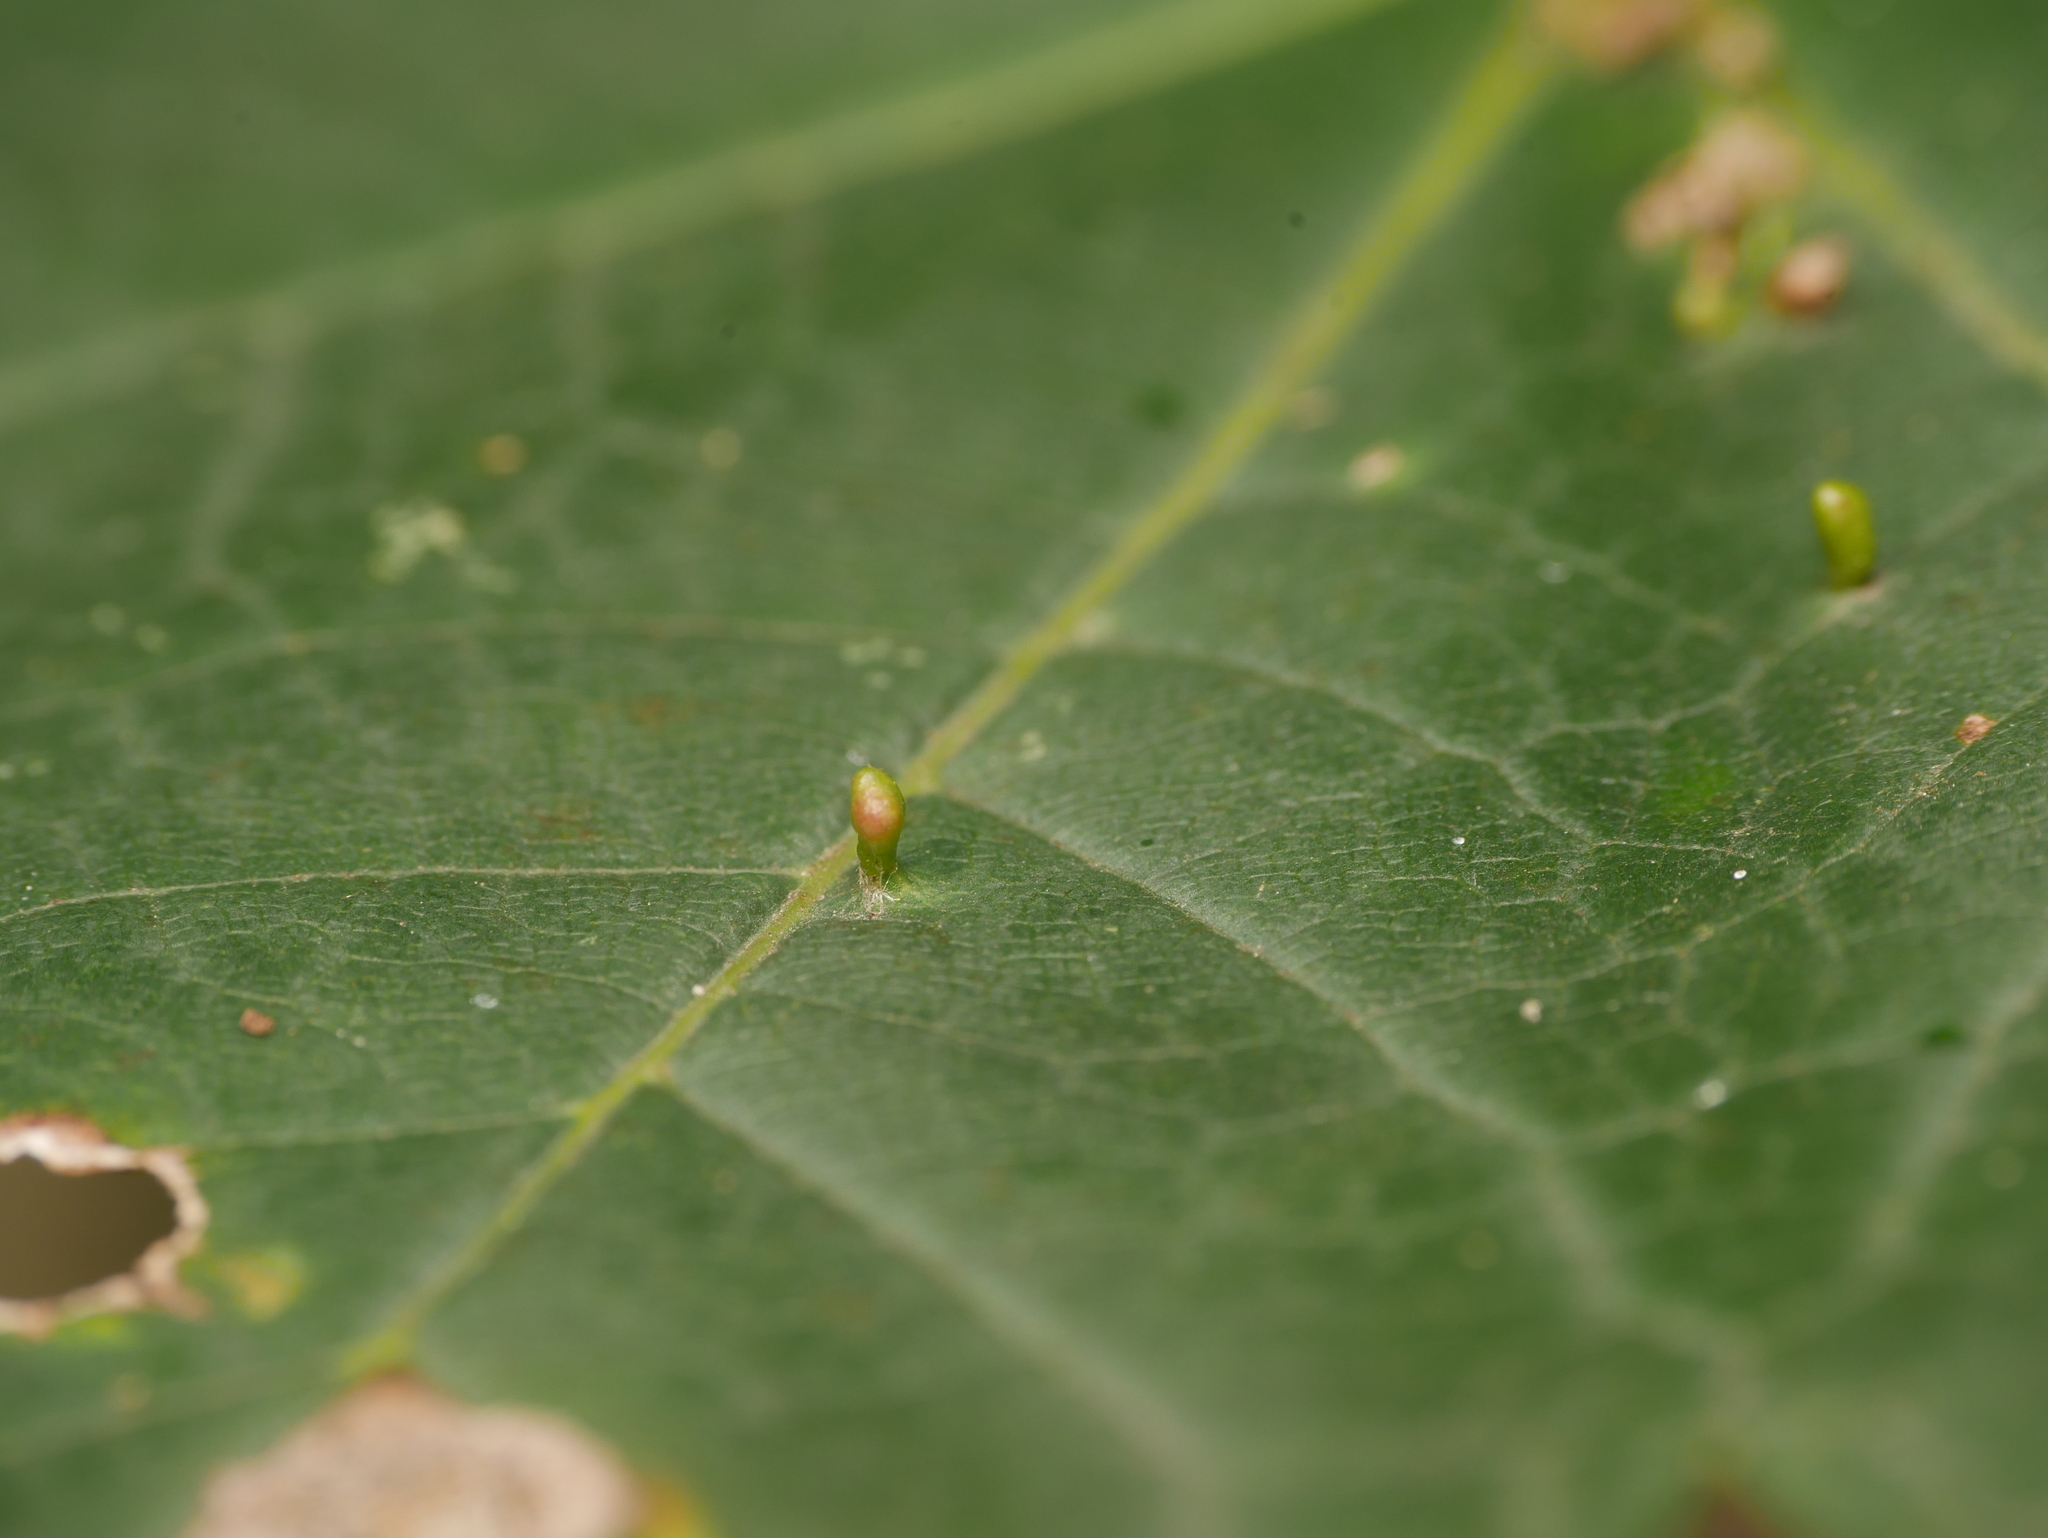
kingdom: Animalia
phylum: Arthropoda
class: Arachnida
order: Trombidiformes
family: Eriophyidae
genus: Aceria
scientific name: Aceria cephaloneus
